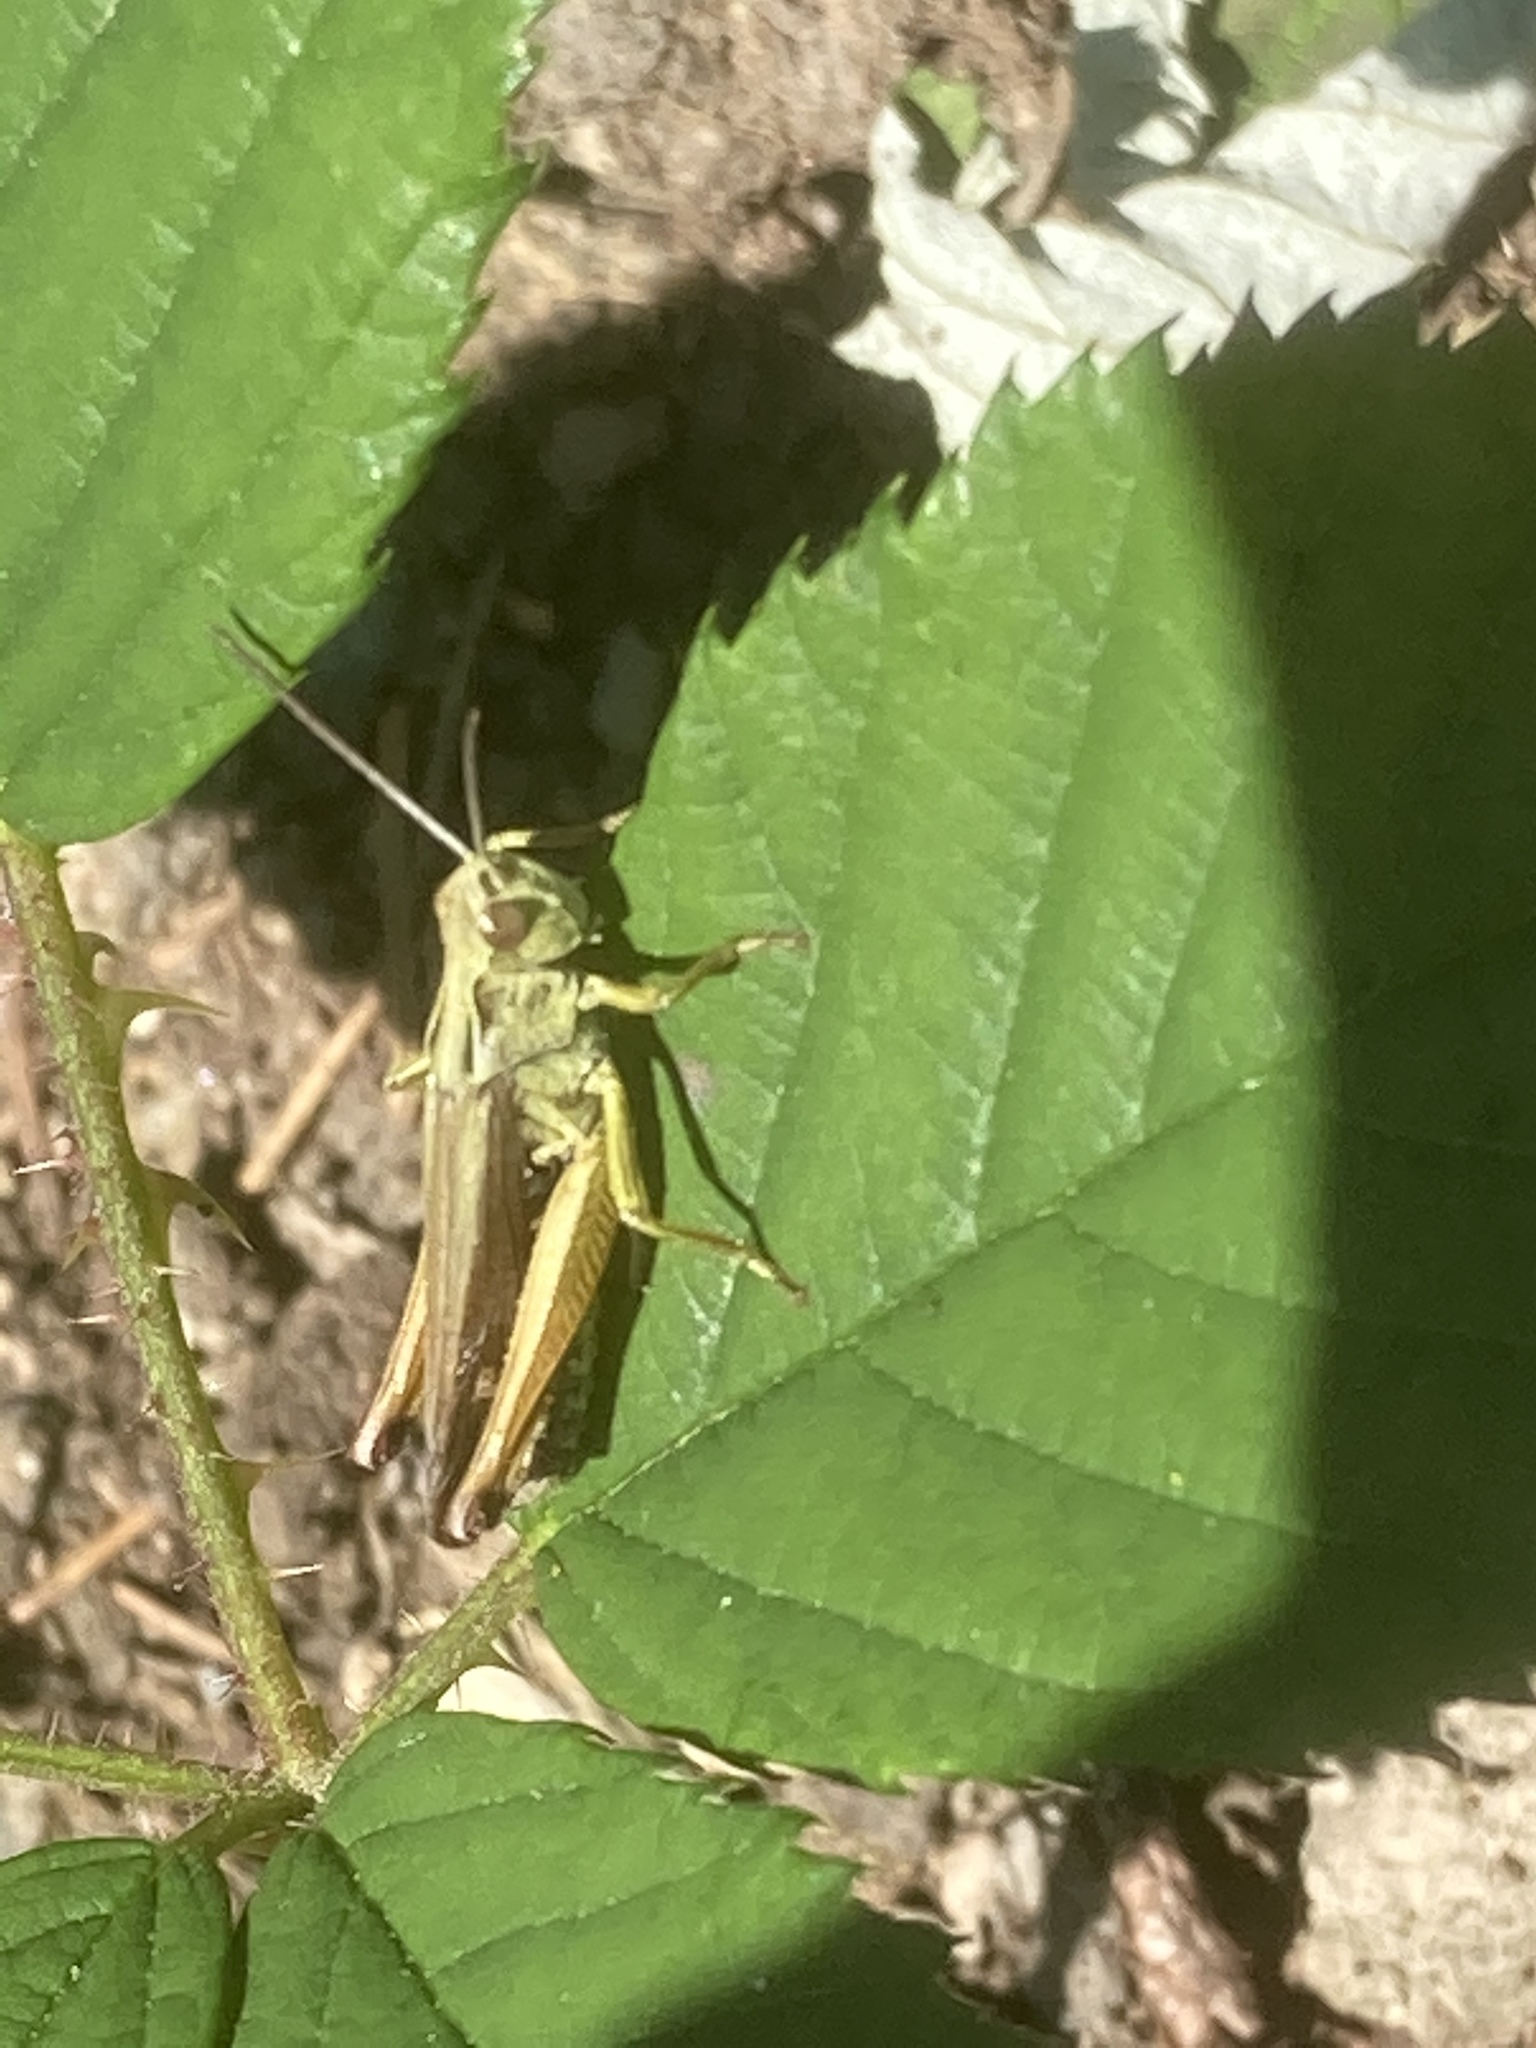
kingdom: Animalia
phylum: Arthropoda
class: Insecta
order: Orthoptera
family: Acrididae
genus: Omocestus
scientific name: Omocestus viridulus
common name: Common green grasshopper
